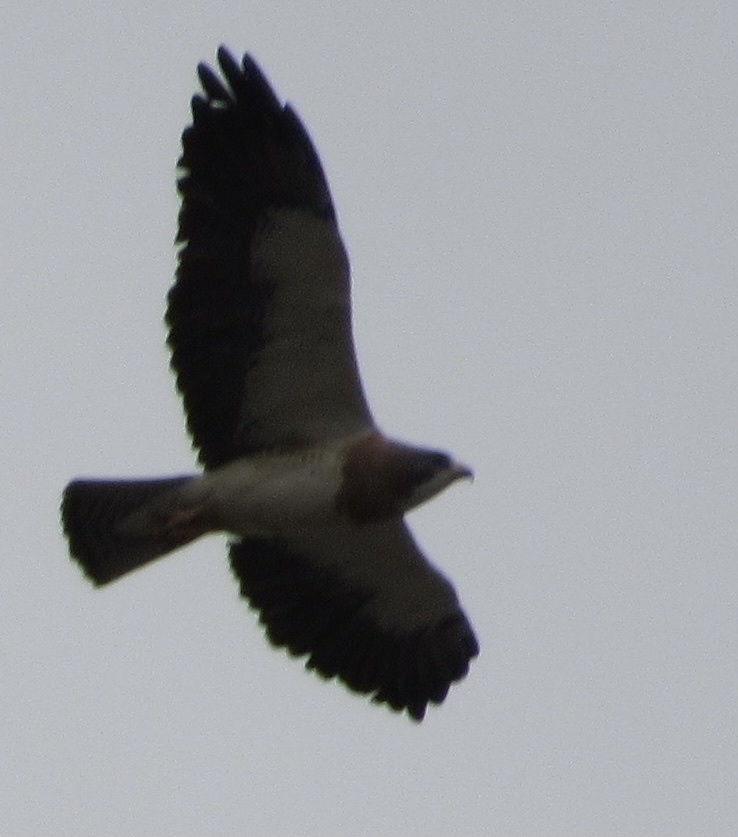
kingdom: Animalia
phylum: Chordata
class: Aves
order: Accipitriformes
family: Accipitridae
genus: Buteo
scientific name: Buteo swainsoni
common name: Swainson's hawk
